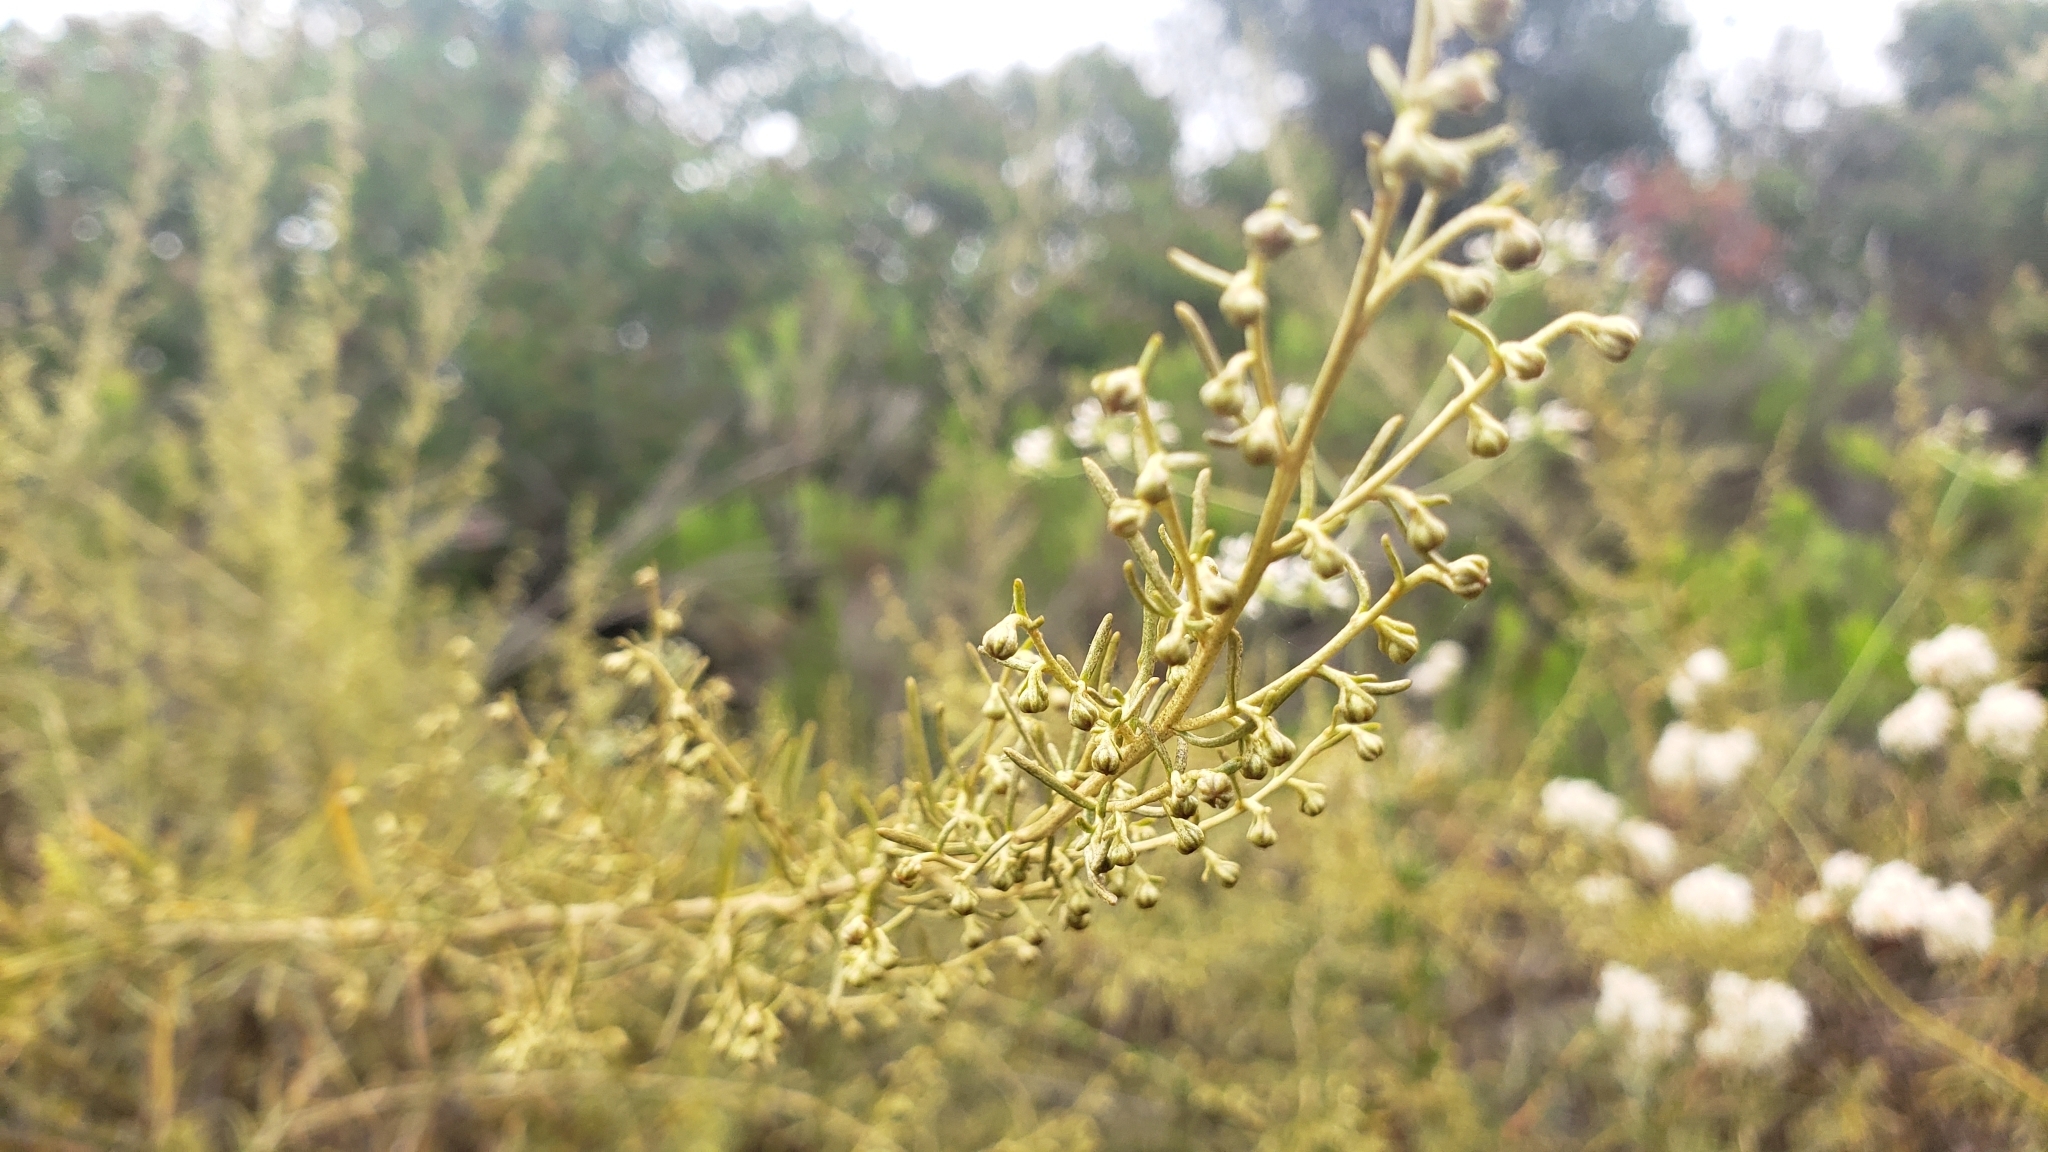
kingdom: Plantae
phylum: Tracheophyta
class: Magnoliopsida
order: Asterales
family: Asteraceae
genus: Artemisia
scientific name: Artemisia californica
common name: California sagebrush
